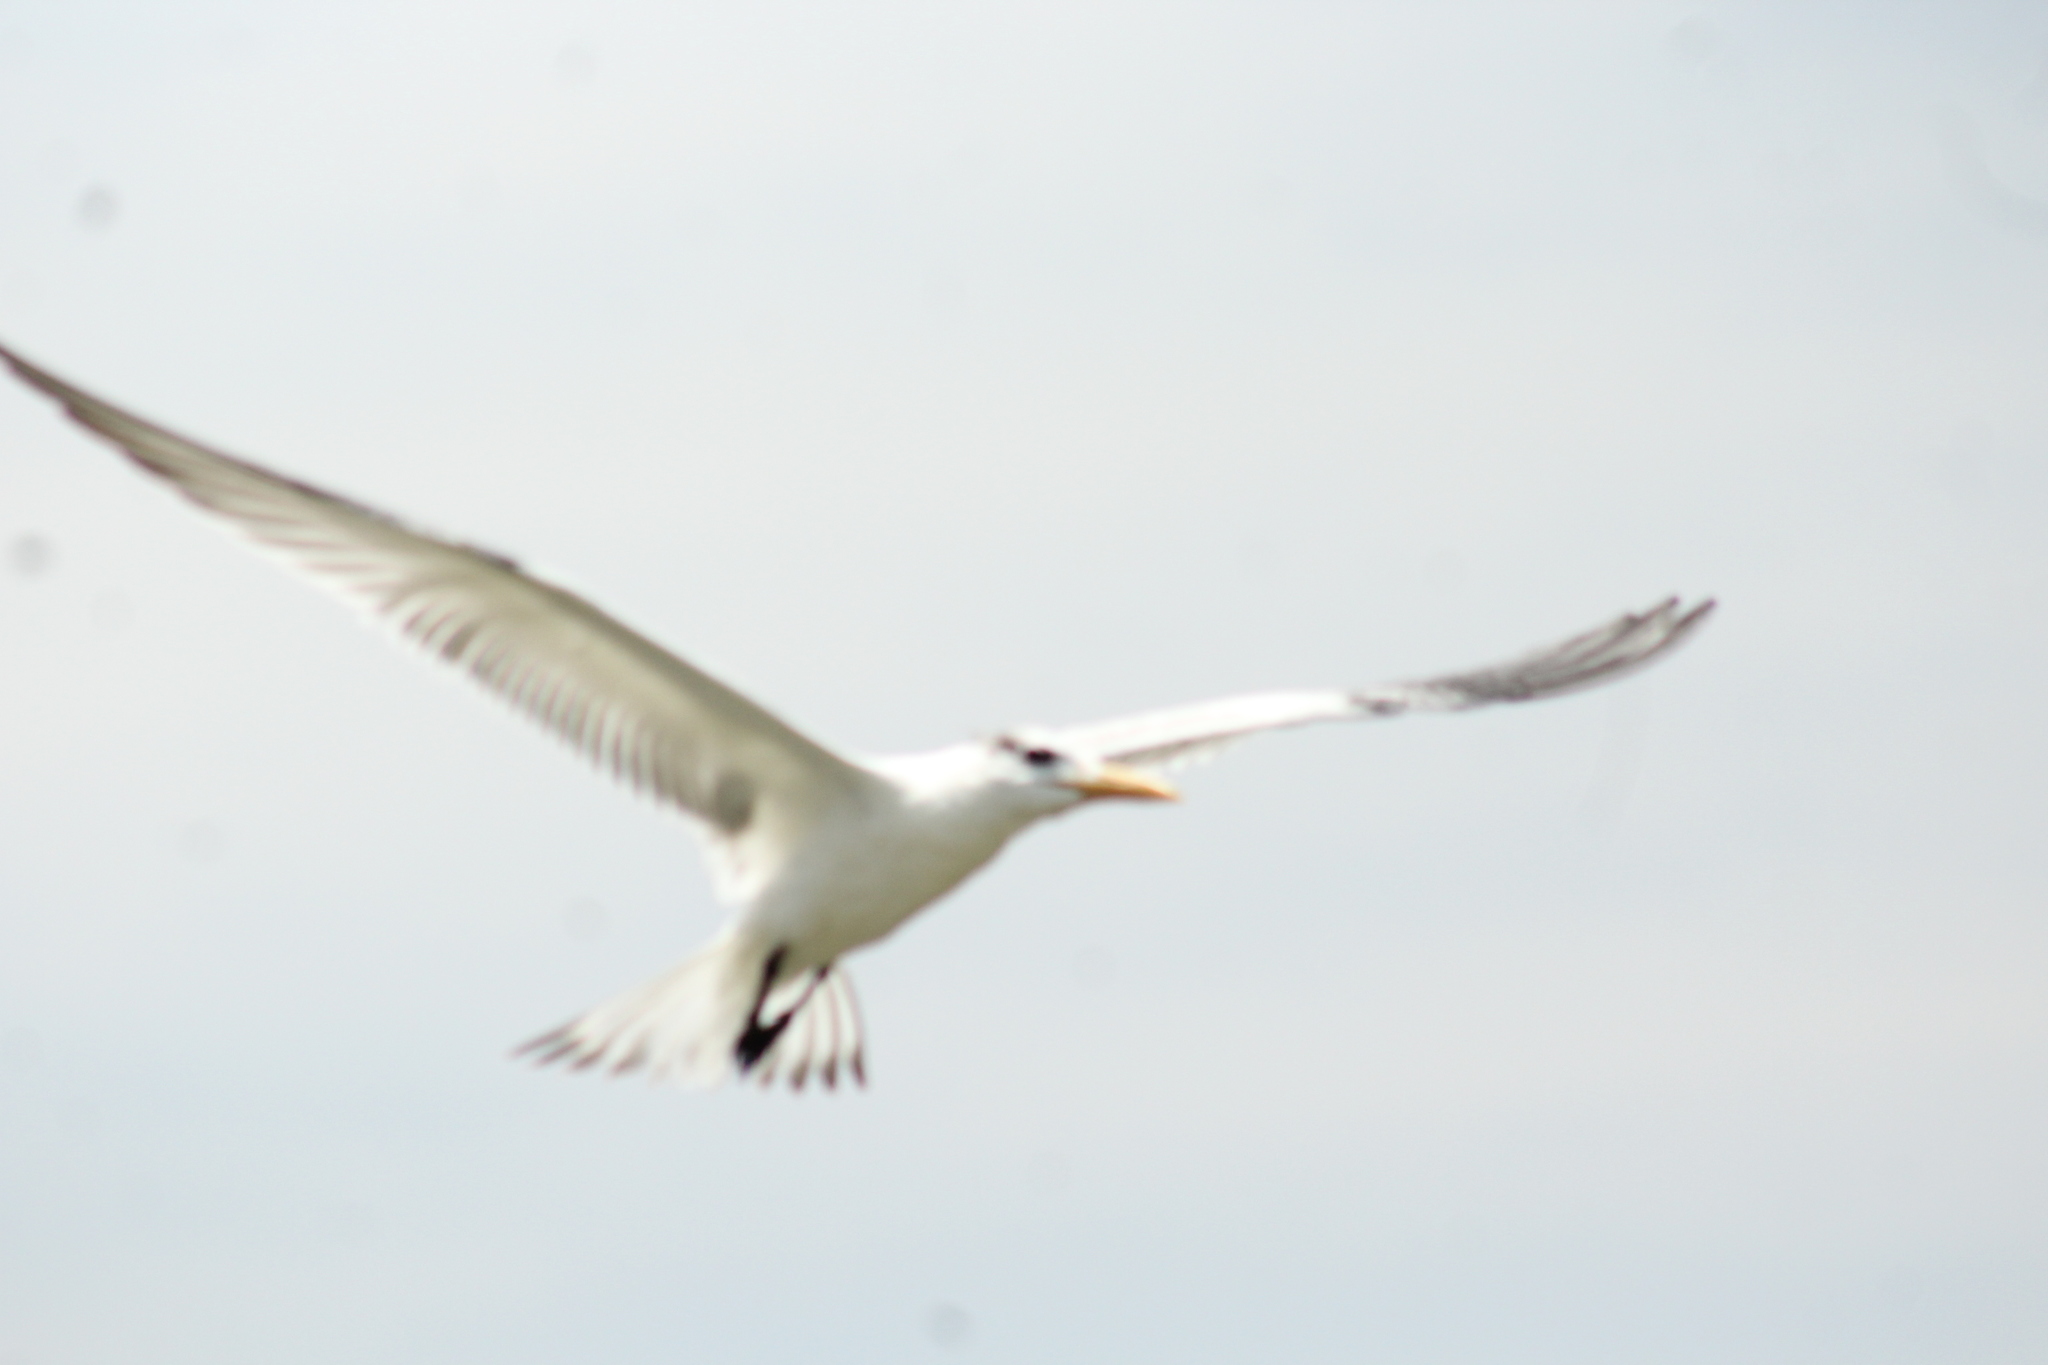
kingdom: Animalia
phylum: Chordata
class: Aves
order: Charadriiformes
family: Laridae
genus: Thalasseus
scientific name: Thalasseus maximus
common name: Royal tern
